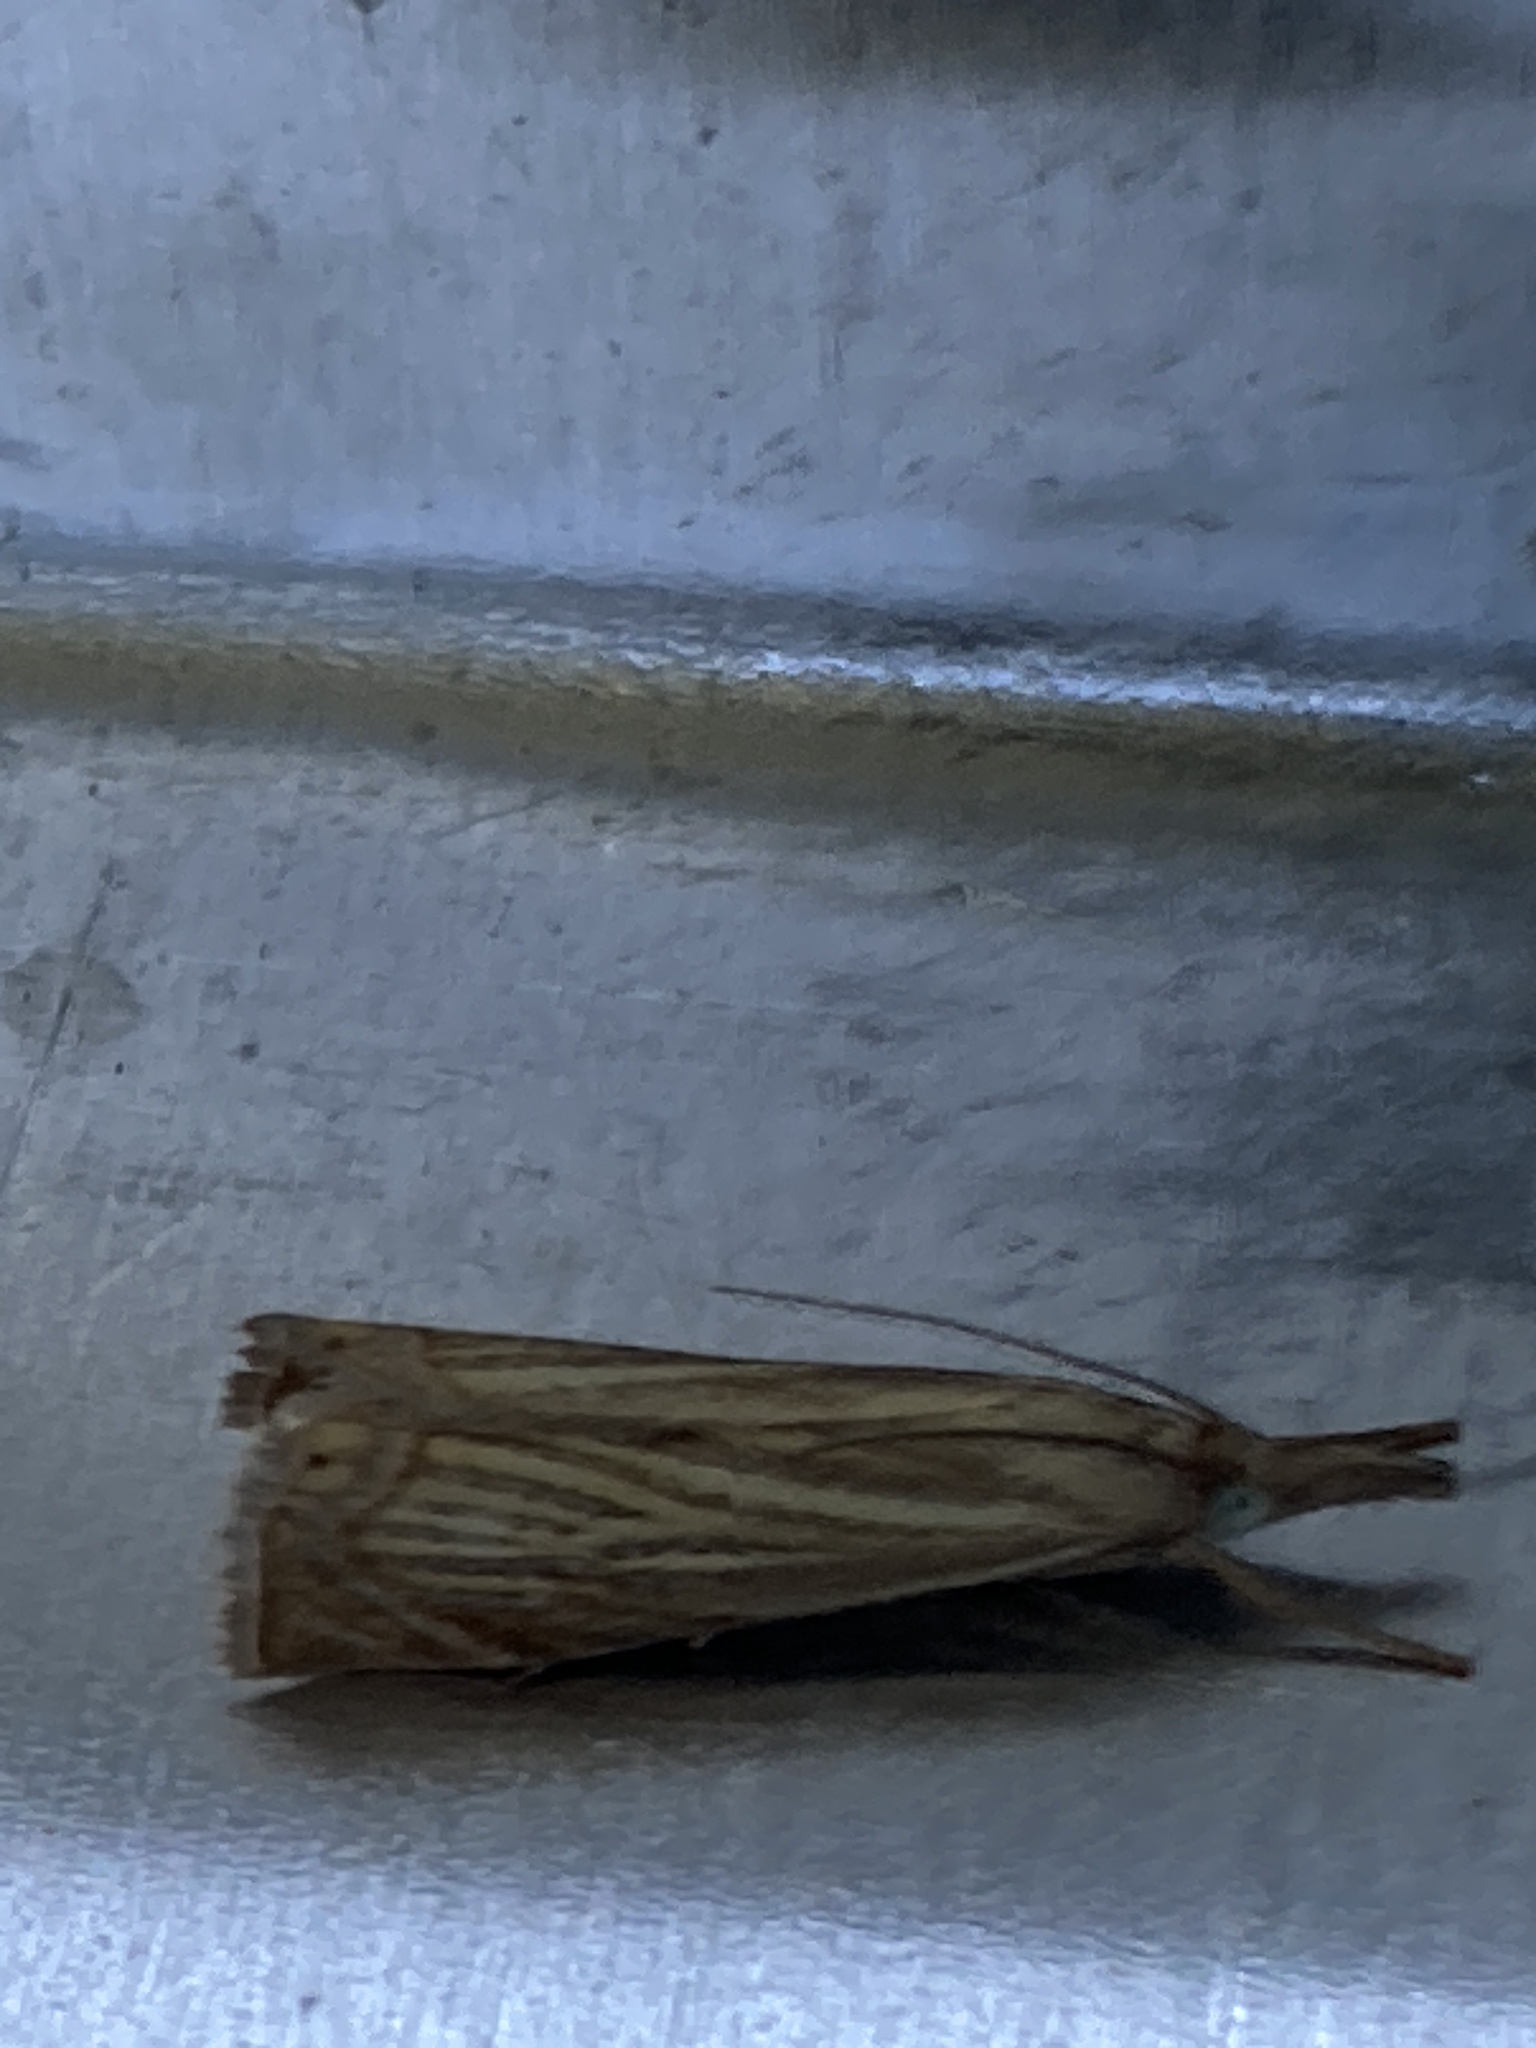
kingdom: Animalia
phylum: Arthropoda
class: Insecta
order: Lepidoptera
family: Crambidae
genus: Chrysoteuchia
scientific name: Chrysoteuchia culmella
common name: Garden grass-veneer
